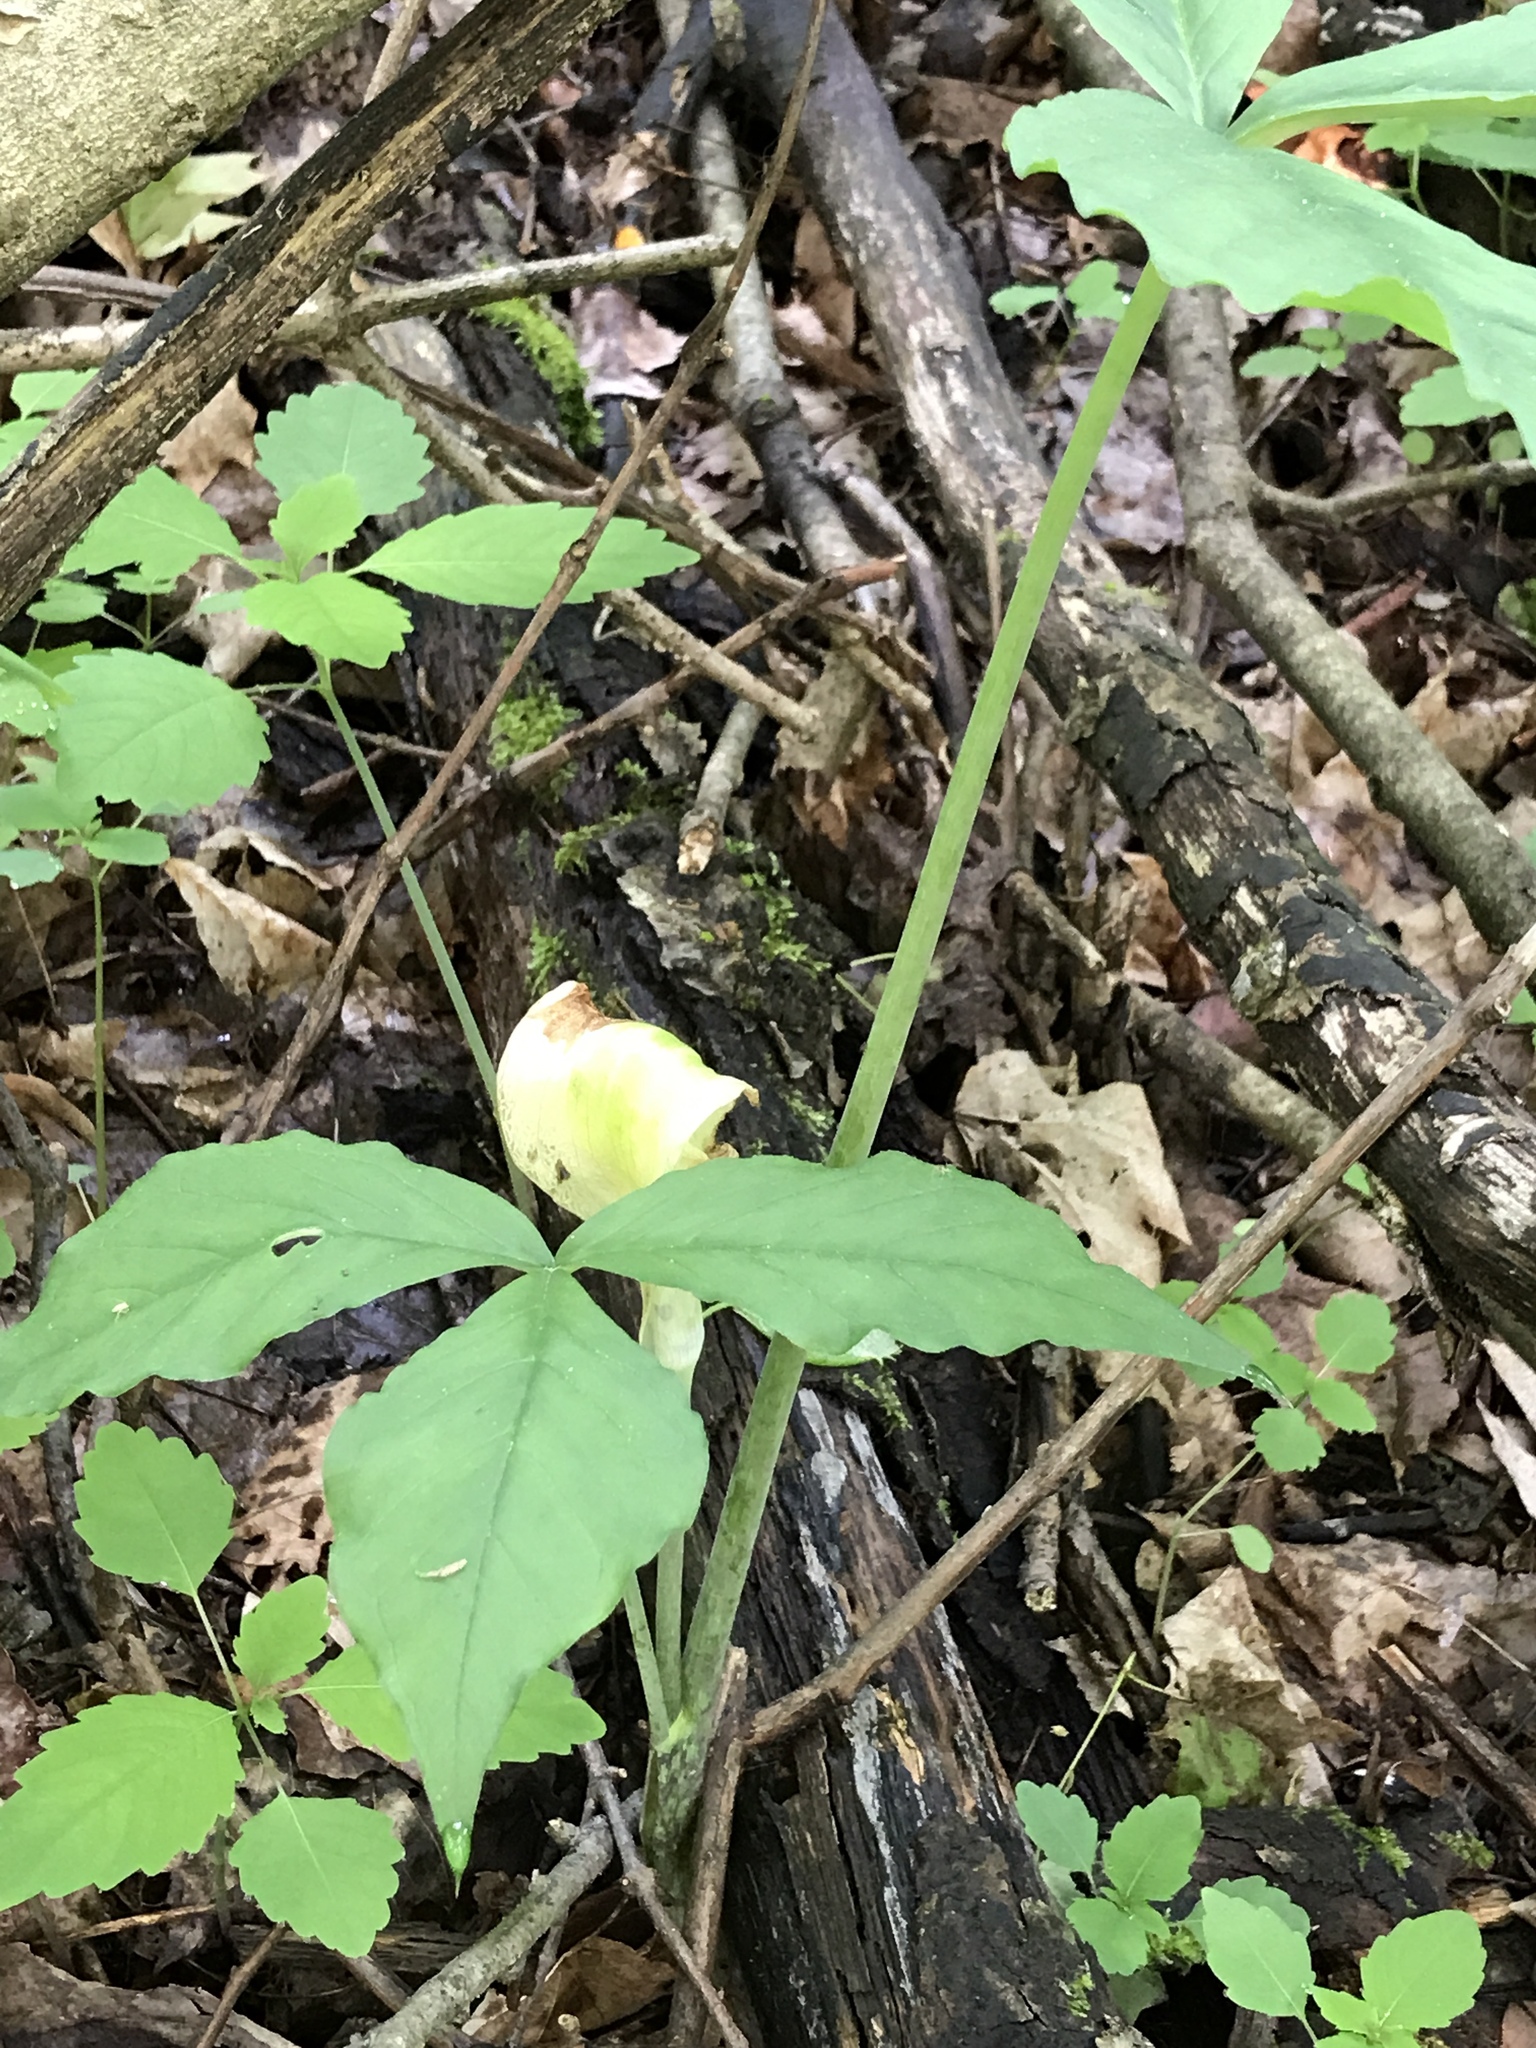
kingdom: Plantae
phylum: Tracheophyta
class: Liliopsida
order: Alismatales
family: Araceae
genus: Arisaema
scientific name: Arisaema triphyllum
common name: Jack-in-the-pulpit
